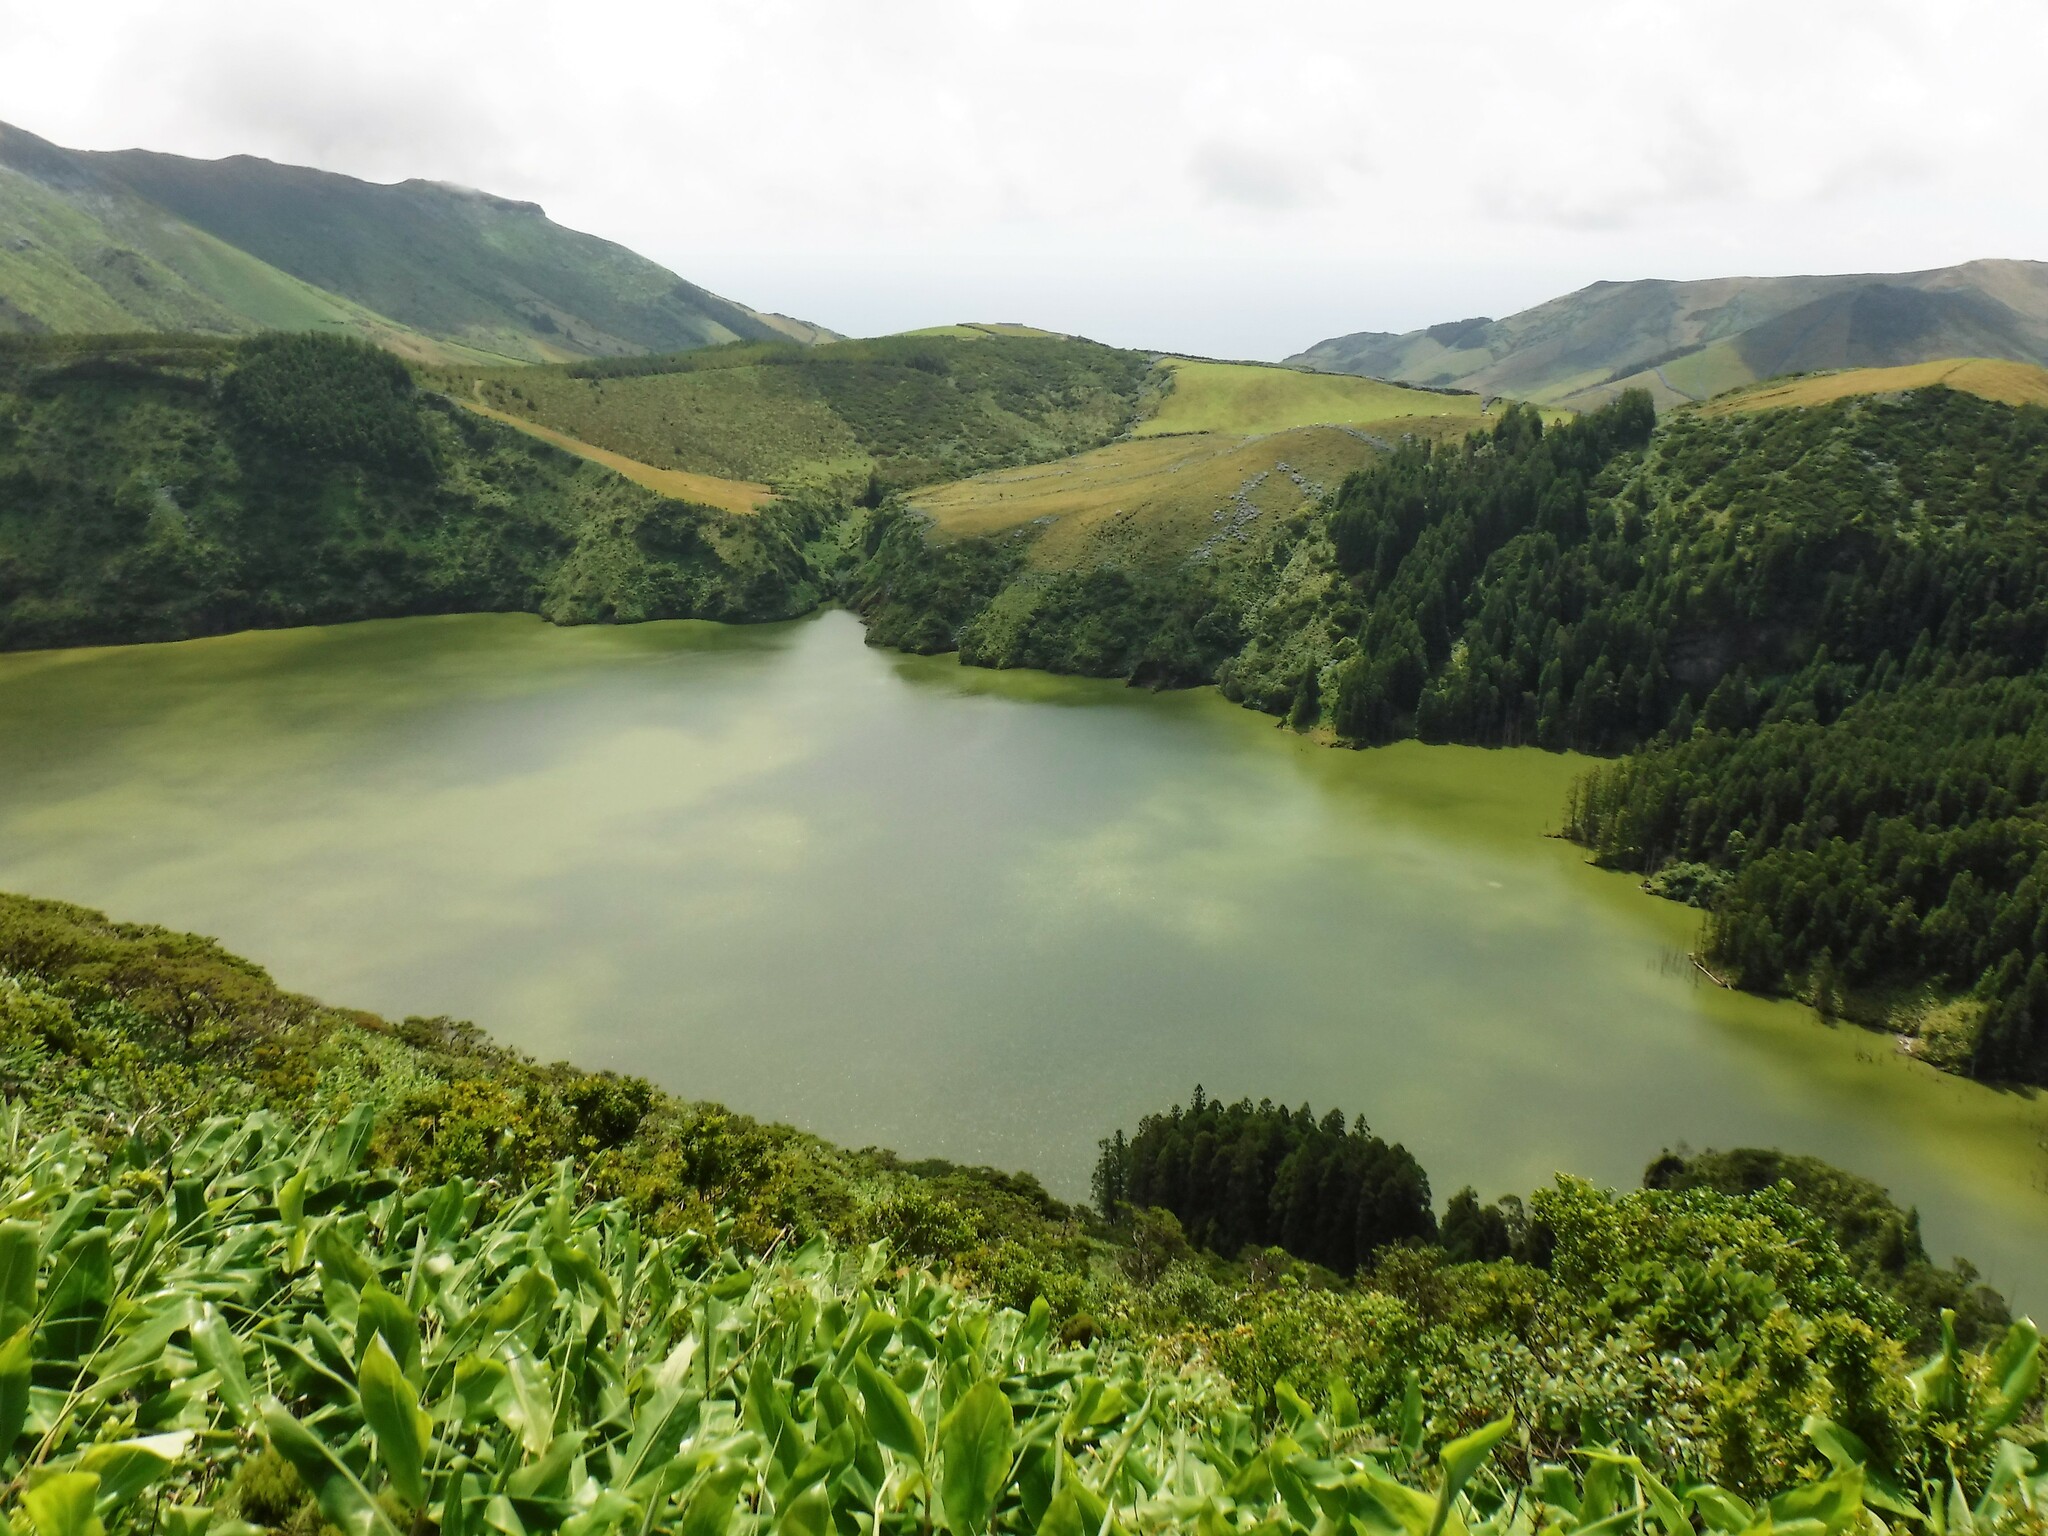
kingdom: Plantae
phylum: Tracheophyta
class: Liliopsida
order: Zingiberales
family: Zingiberaceae
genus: Hedychium
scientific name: Hedychium gardnerianum
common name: Himalayan ginger
